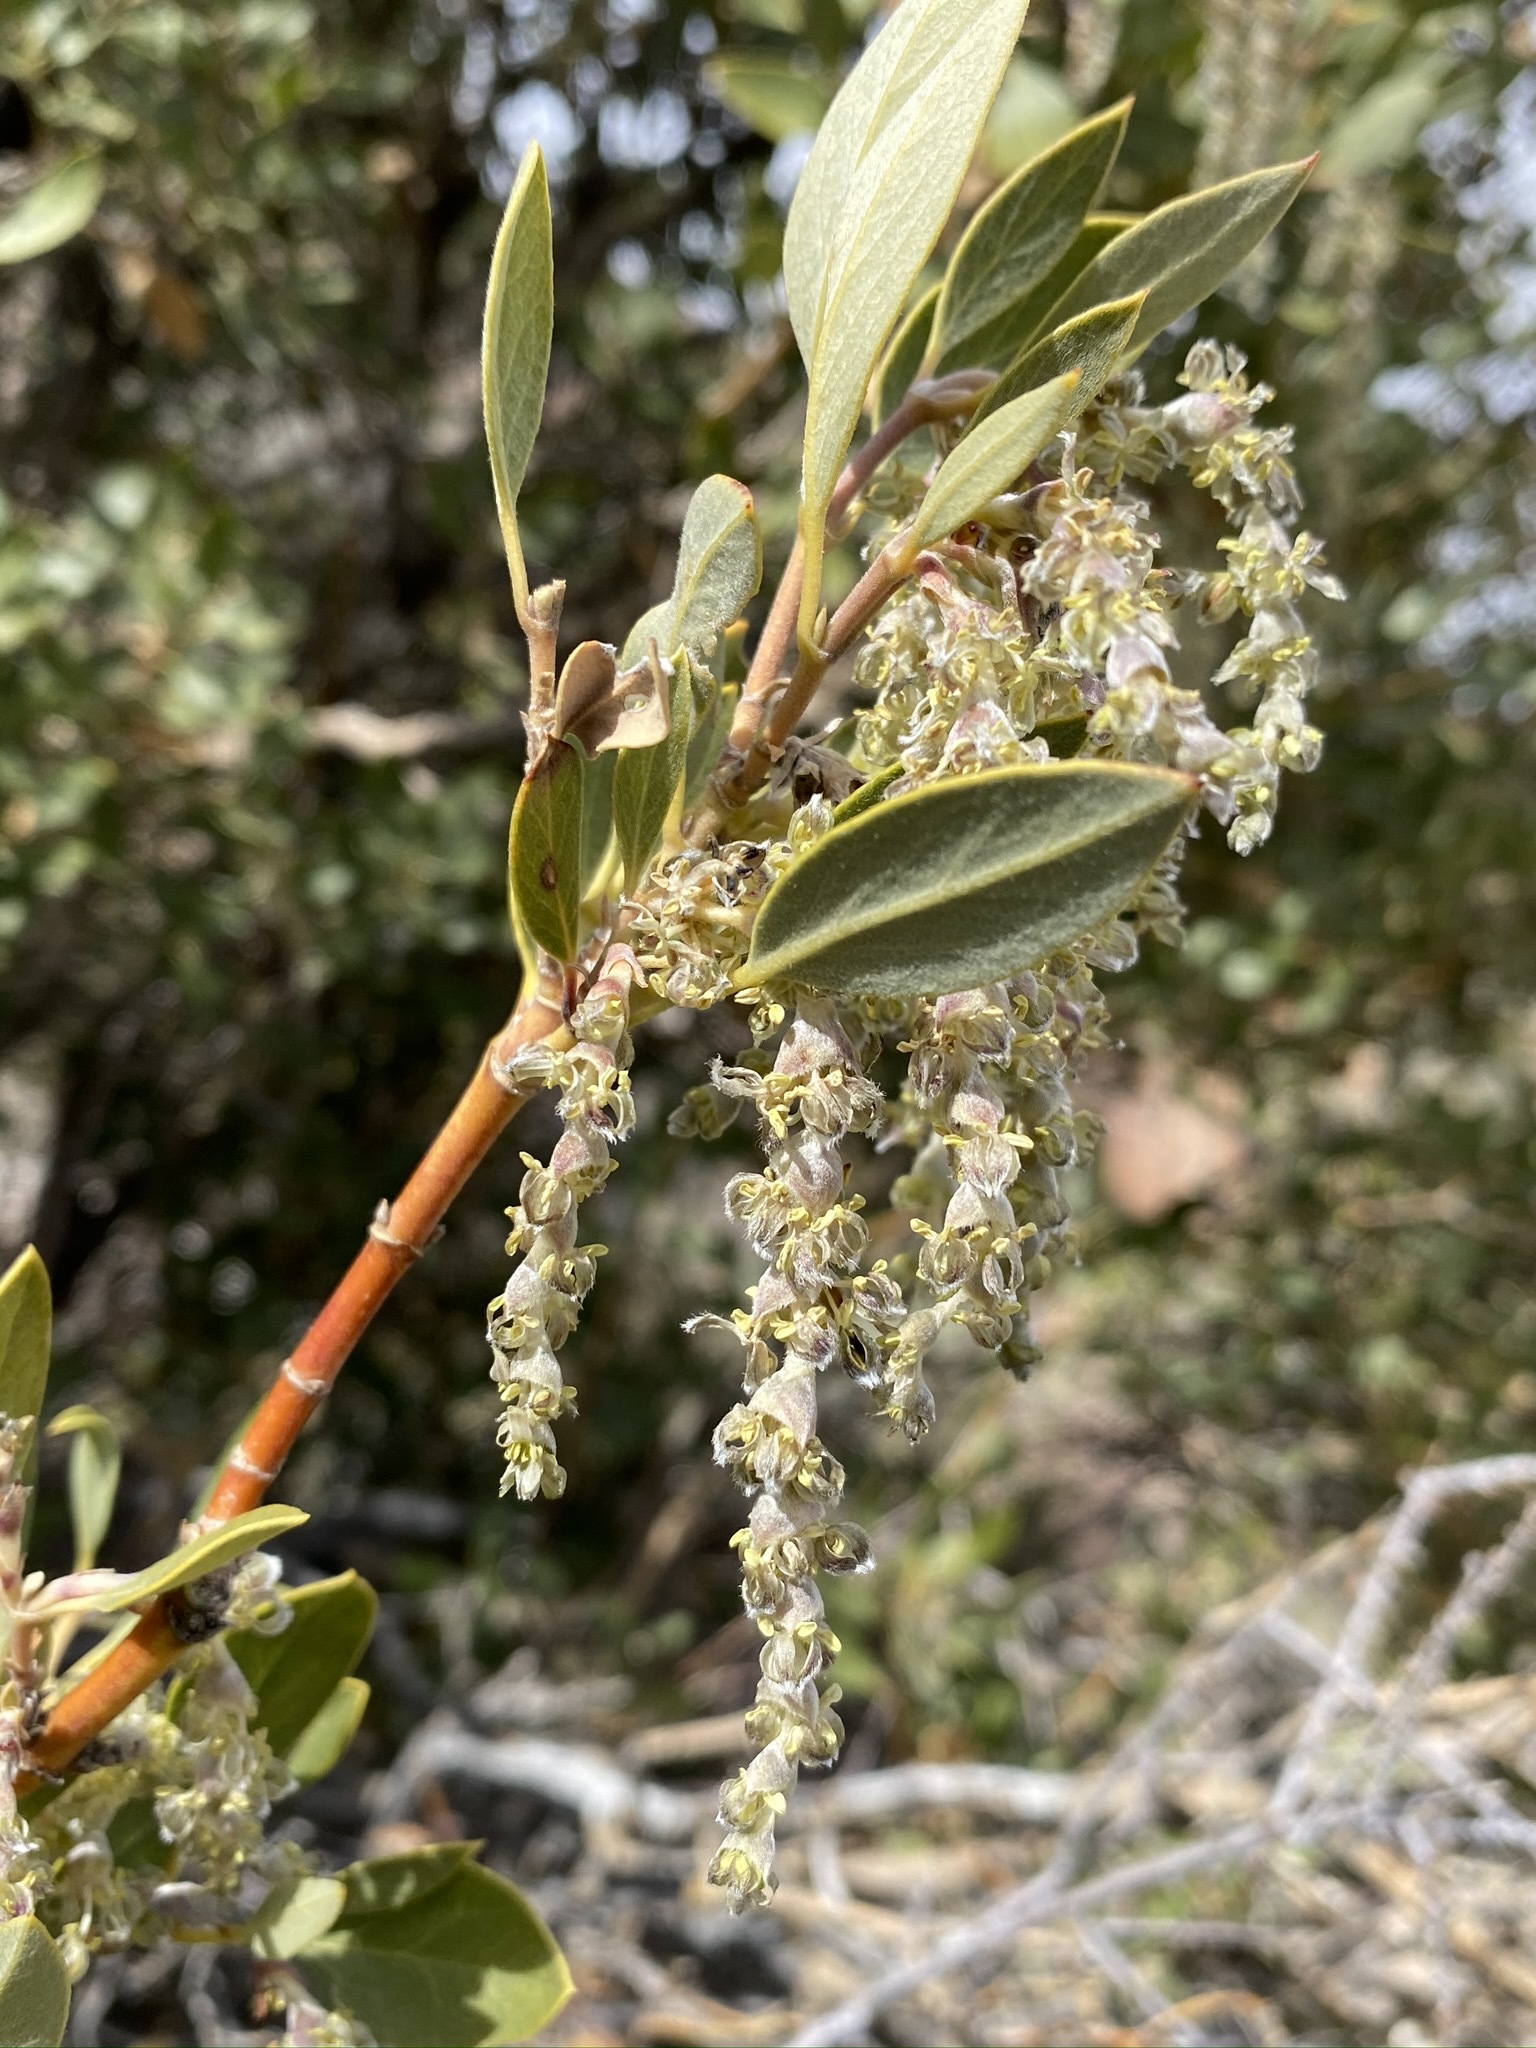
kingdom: Plantae
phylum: Tracheophyta
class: Magnoliopsida
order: Garryales
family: Garryaceae
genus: Garrya
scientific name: Garrya flavescens
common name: Ashy silk-tassel
